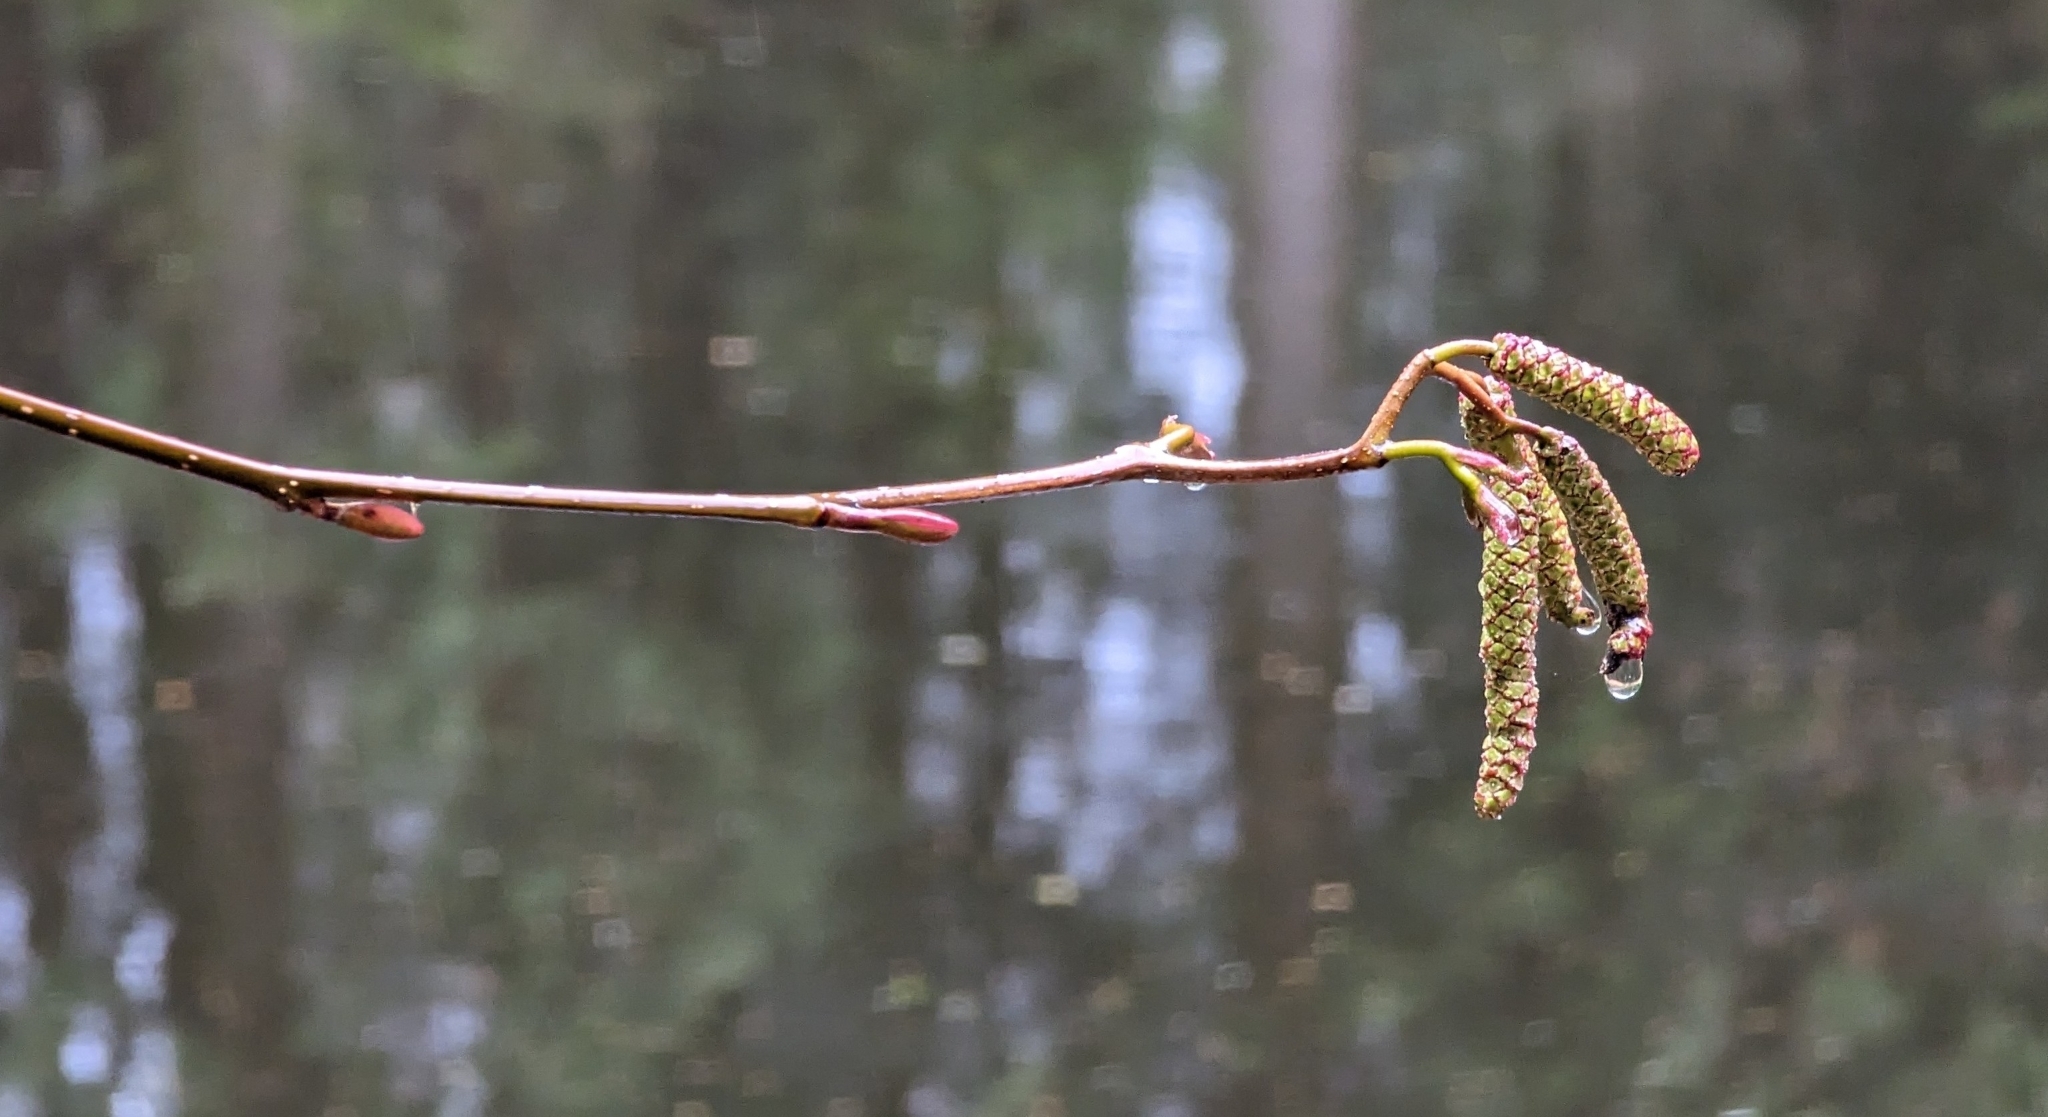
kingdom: Plantae
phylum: Tracheophyta
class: Magnoliopsida
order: Fagales
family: Betulaceae
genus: Alnus
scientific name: Alnus rubra
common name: Red alder
